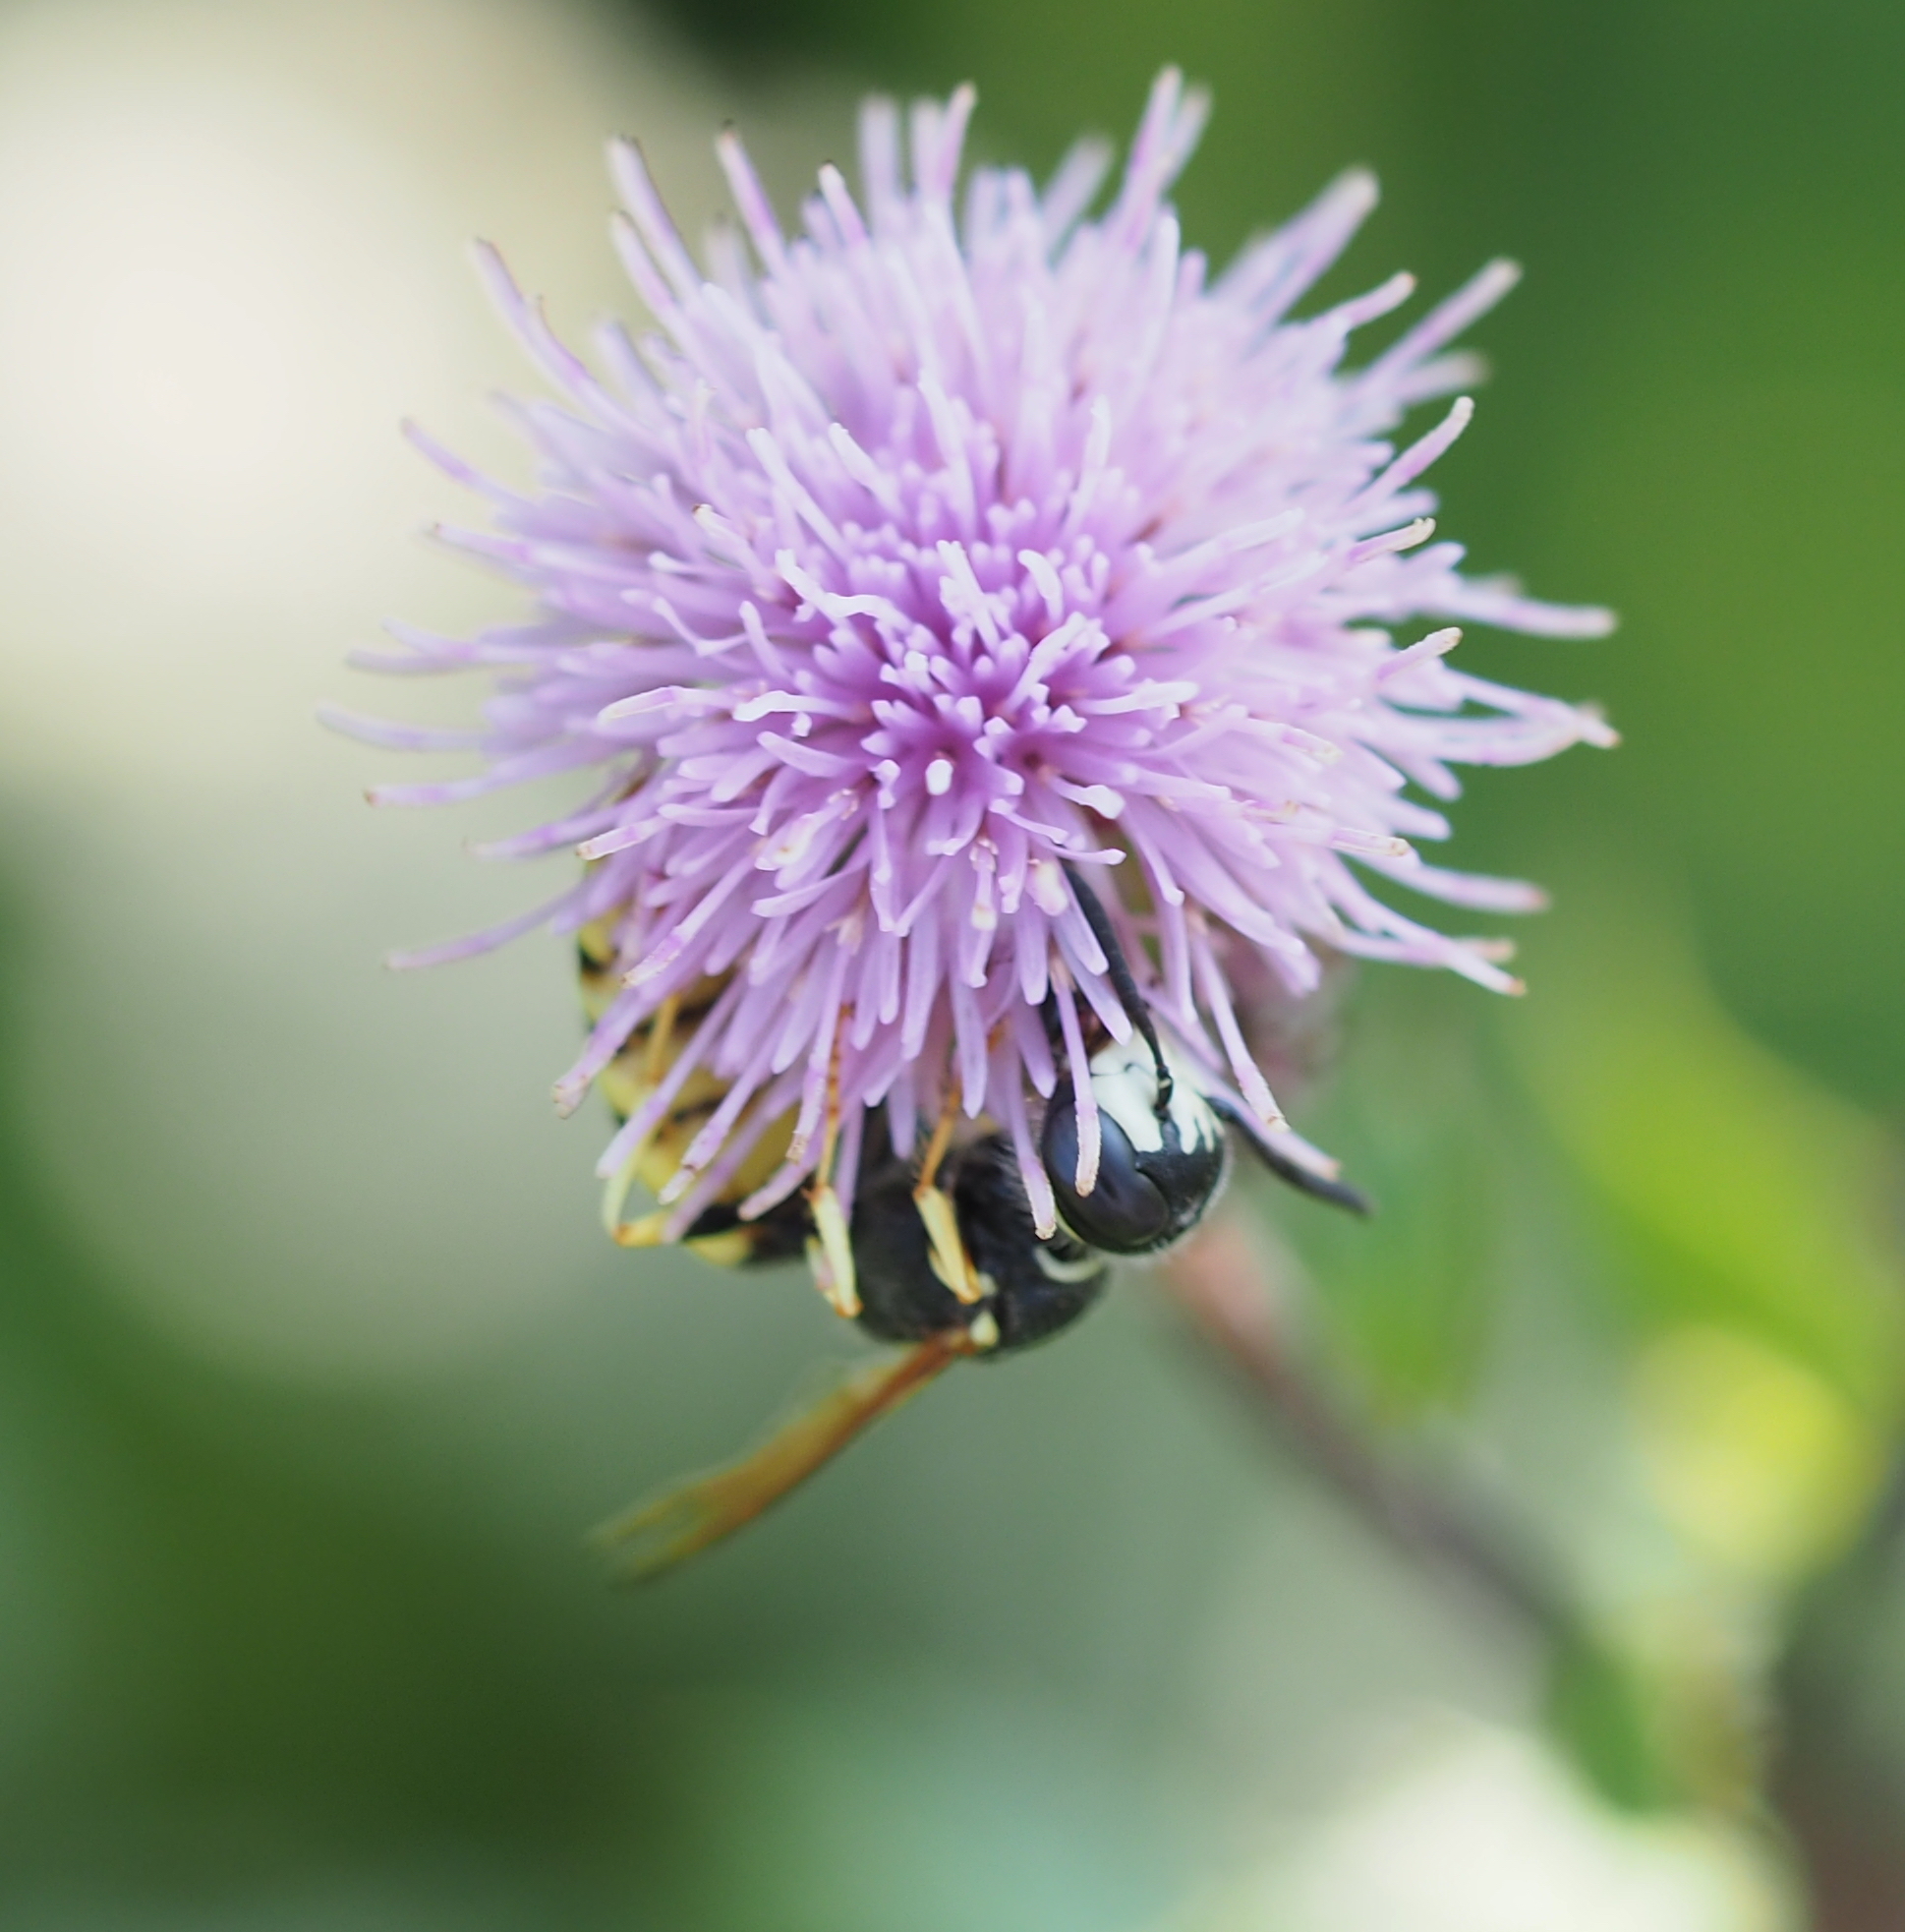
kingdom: Animalia
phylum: Arthropoda
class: Insecta
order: Hymenoptera
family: Crabronidae
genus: Philanthus
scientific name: Philanthus triangulum
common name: Bee wolf
